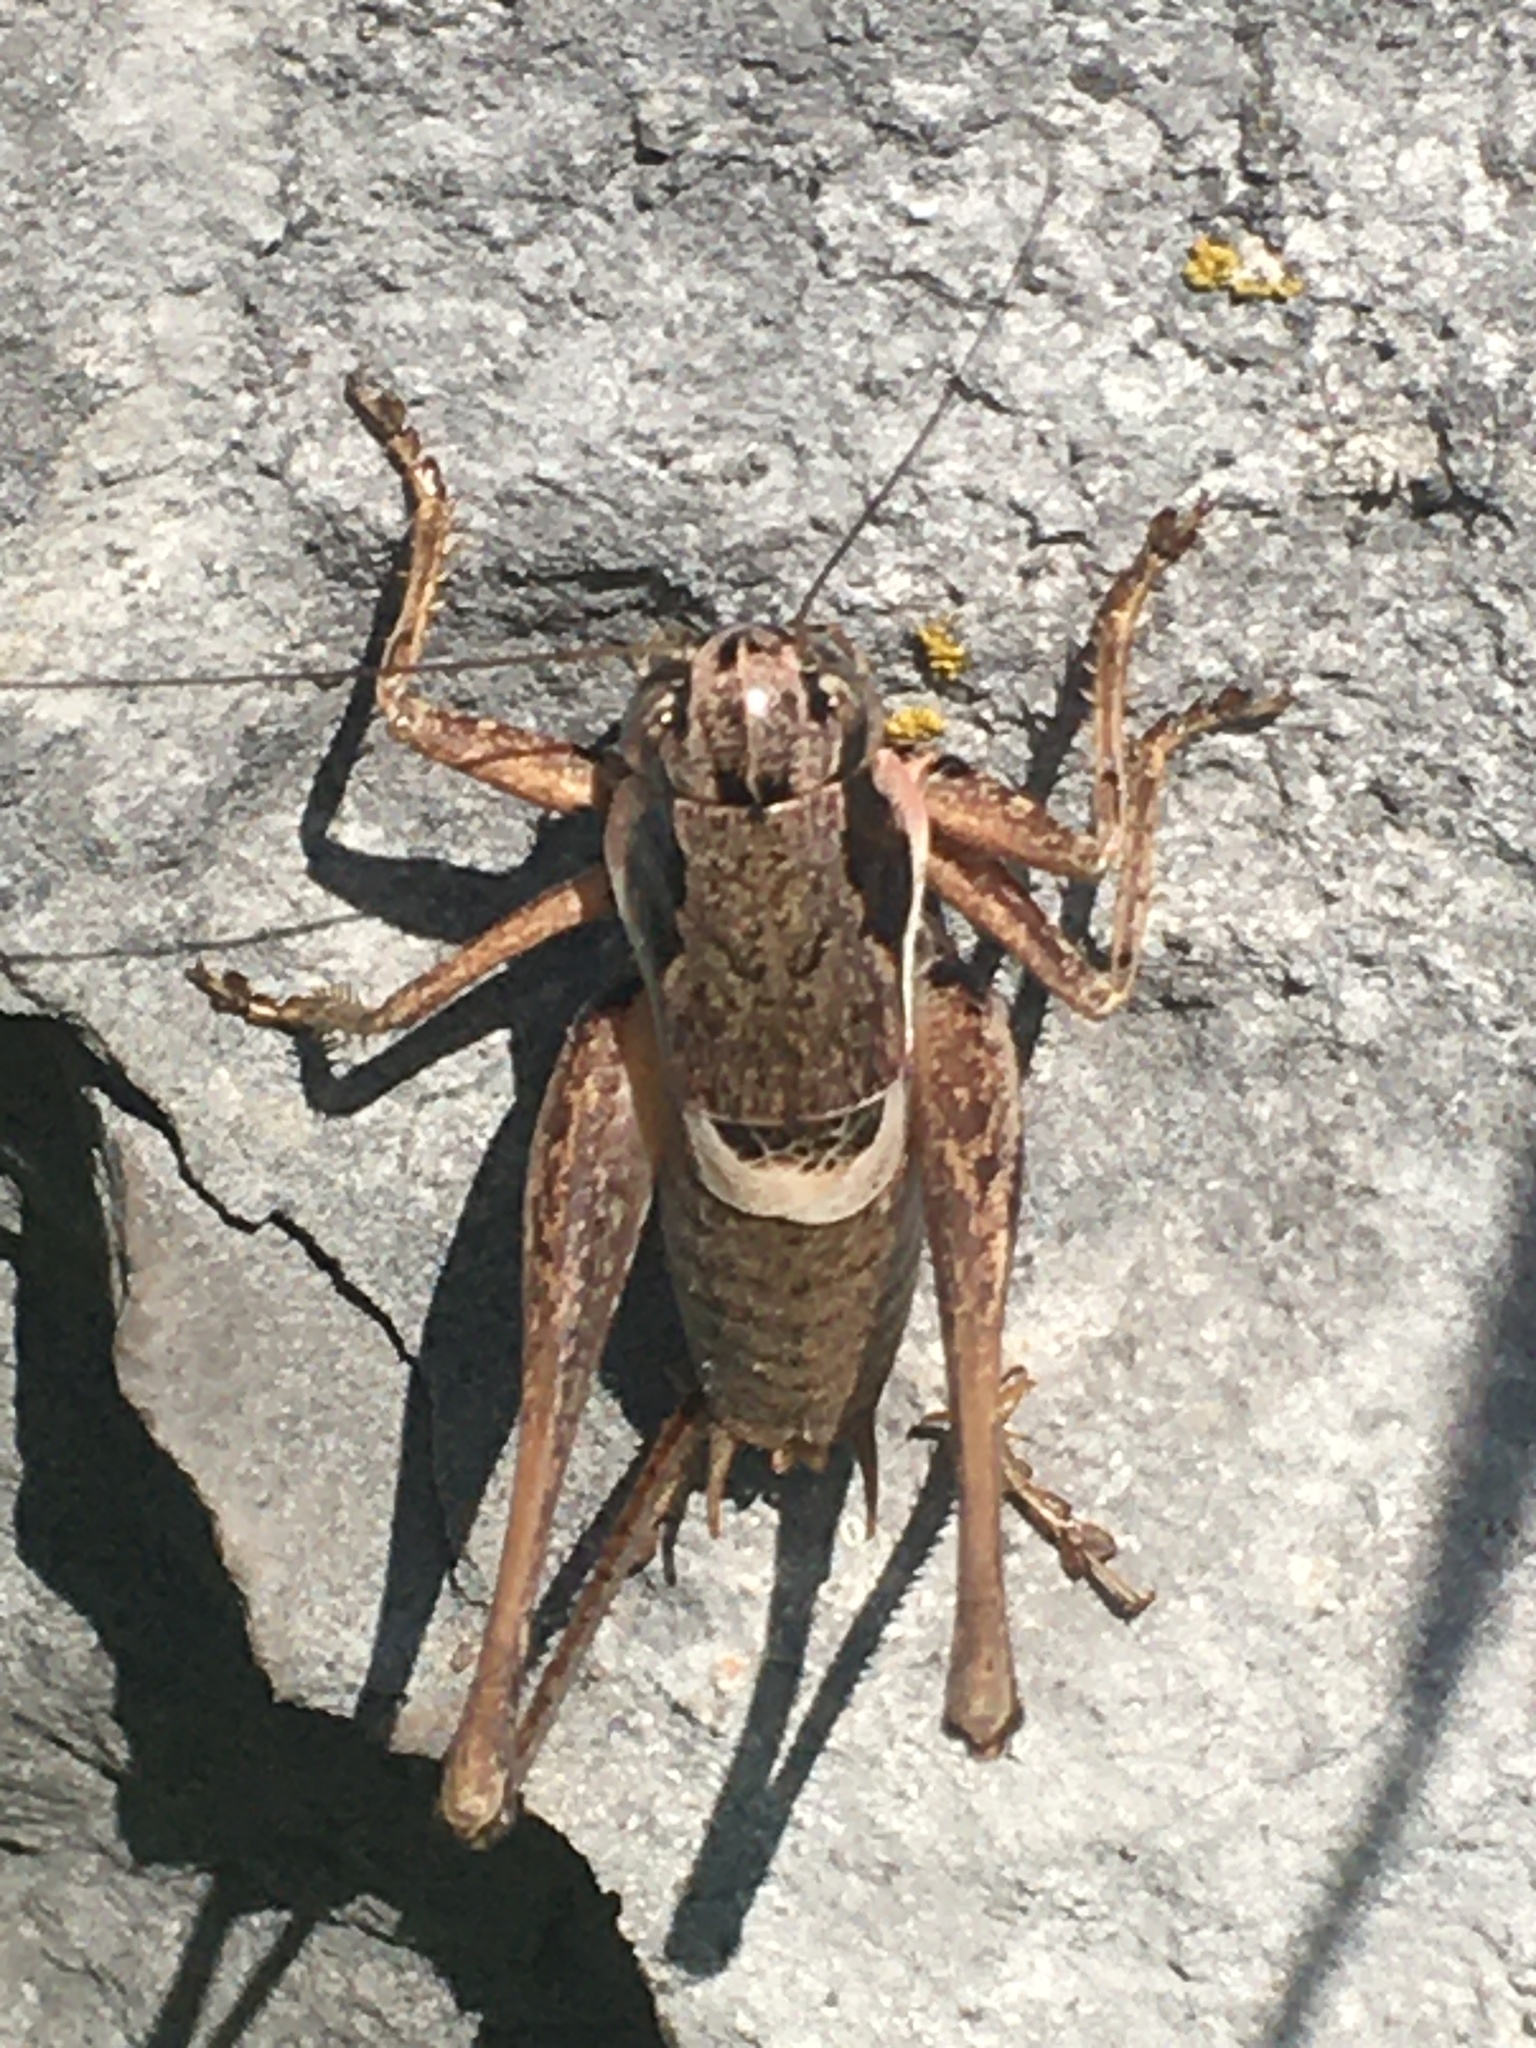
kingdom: Animalia
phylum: Arthropoda
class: Insecta
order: Orthoptera
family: Tettigoniidae
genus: Pholidoptera
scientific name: Pholidoptera pustulipes
